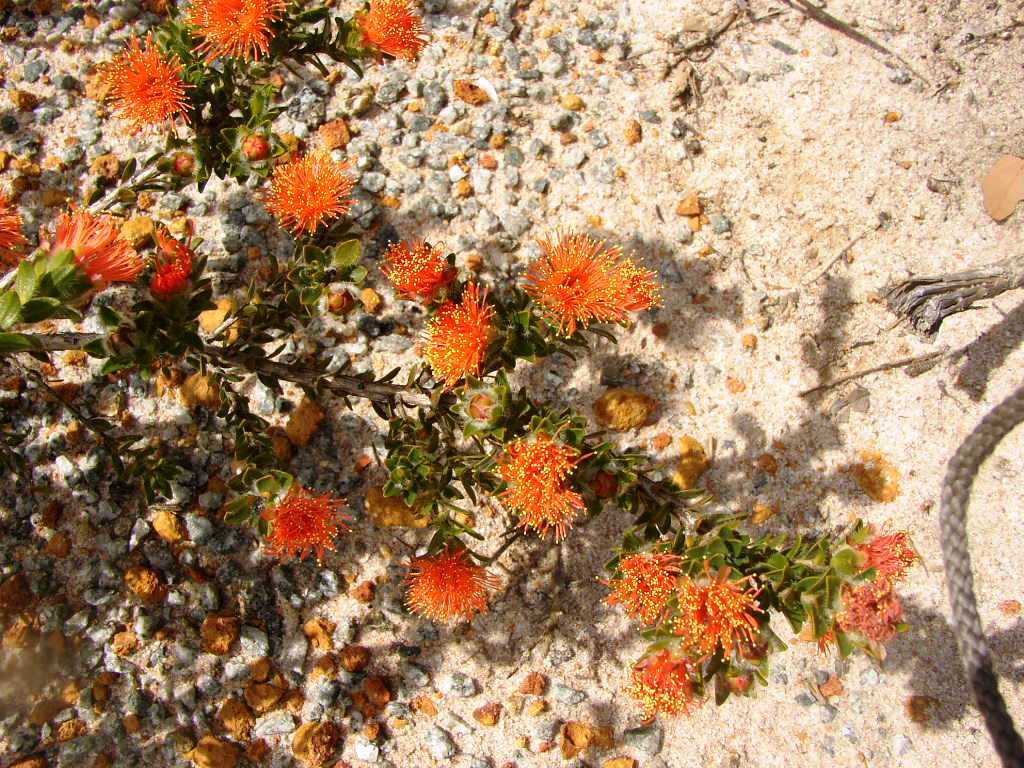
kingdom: Plantae
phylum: Tracheophyta
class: Magnoliopsida
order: Myrtales
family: Myrtaceae
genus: Melaleuca
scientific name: Melaleuca rariflora
